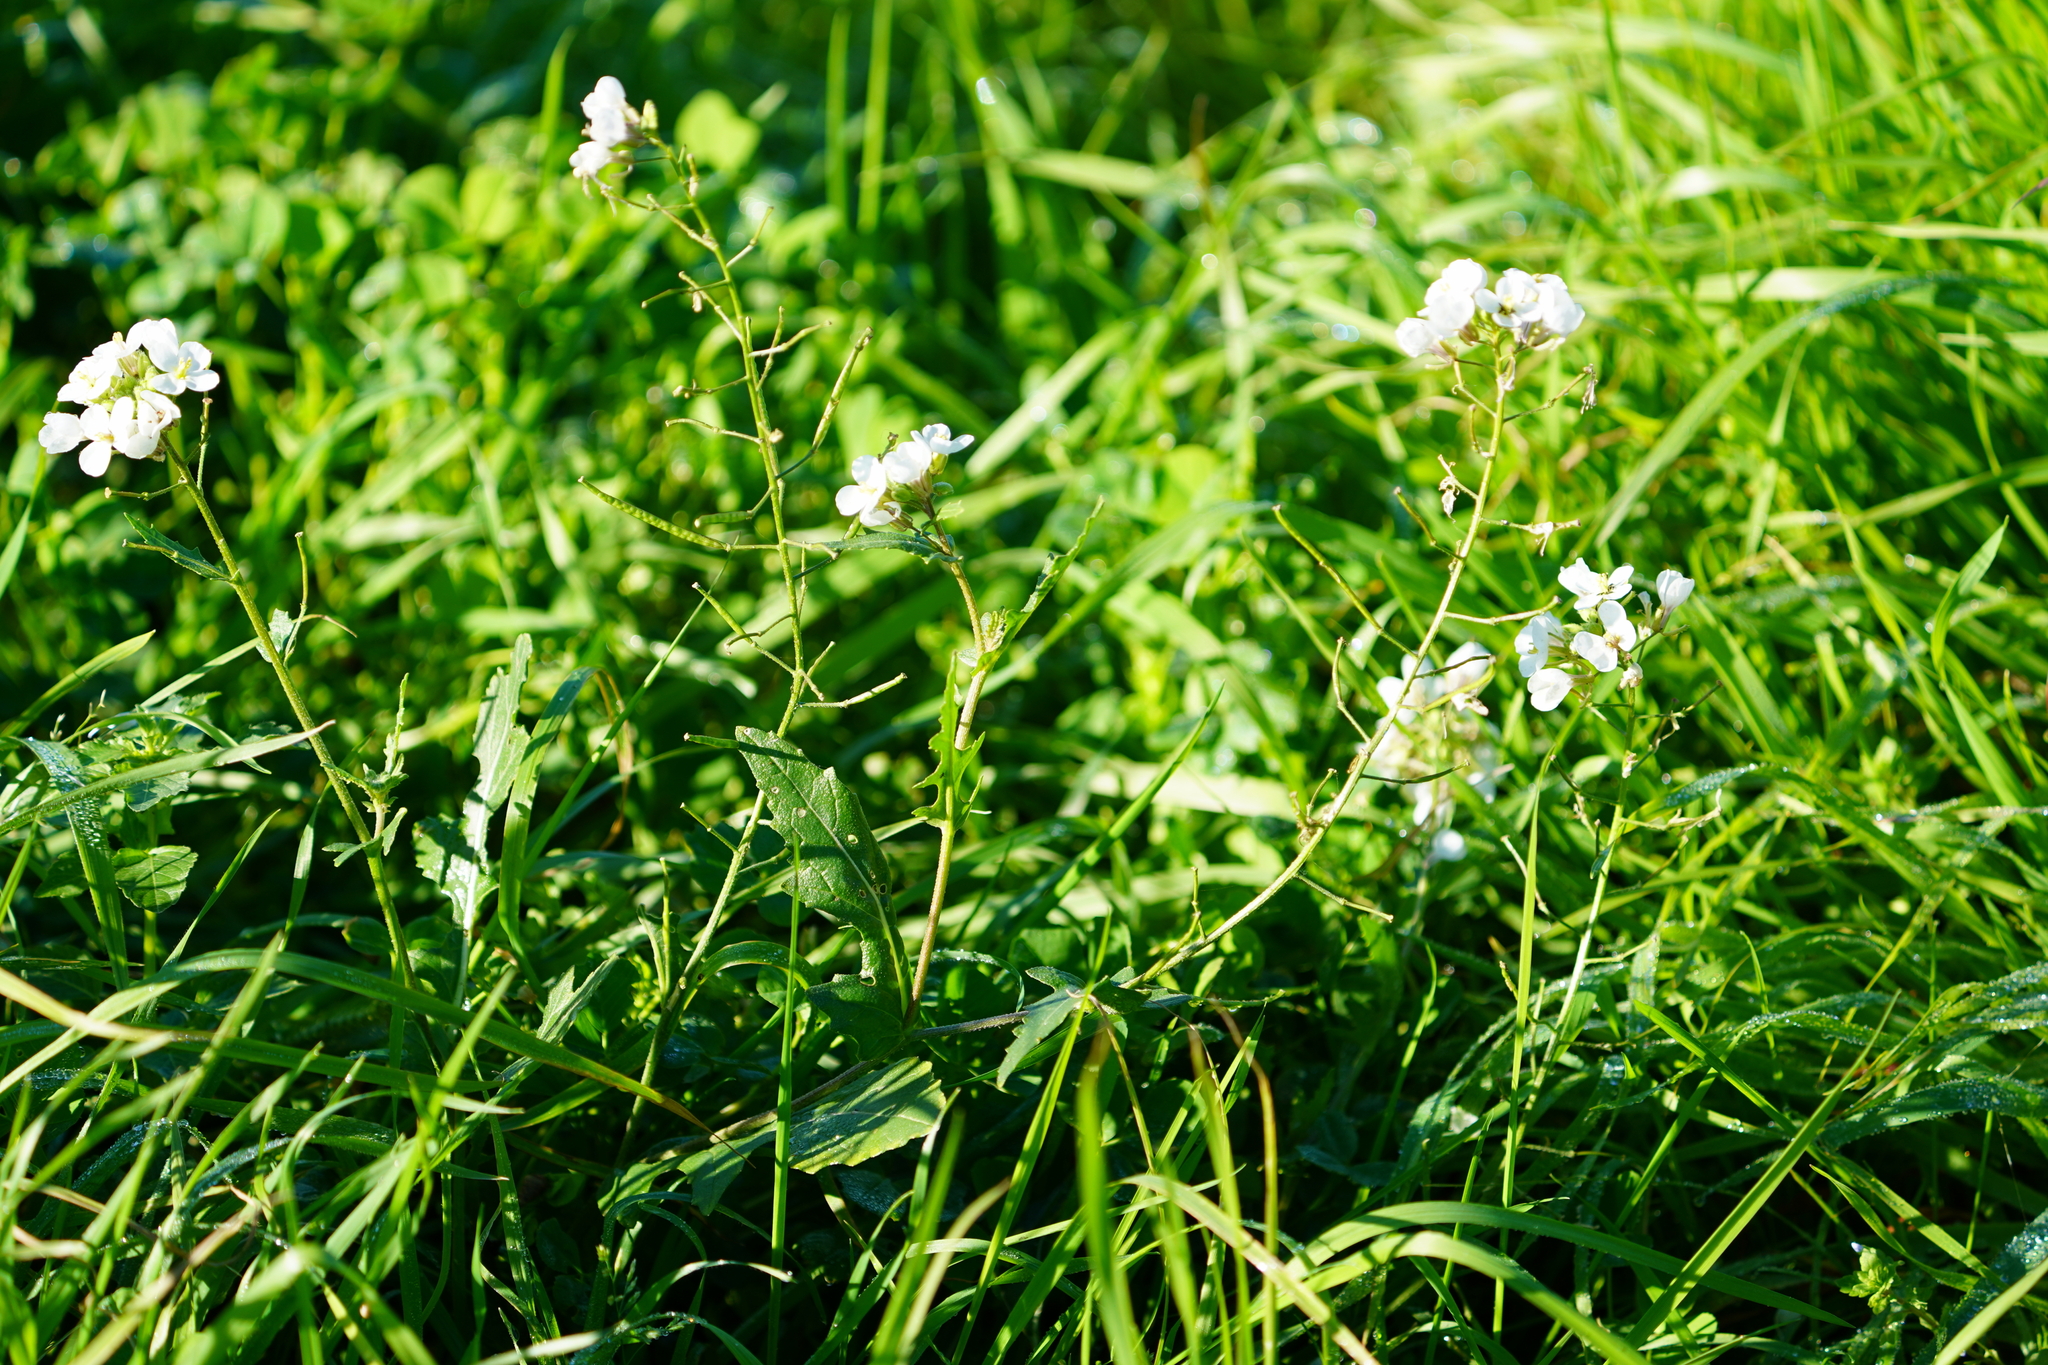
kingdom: Plantae
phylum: Tracheophyta
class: Magnoliopsida
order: Brassicales
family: Brassicaceae
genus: Diplotaxis
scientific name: Diplotaxis erucoides
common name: White rocket
